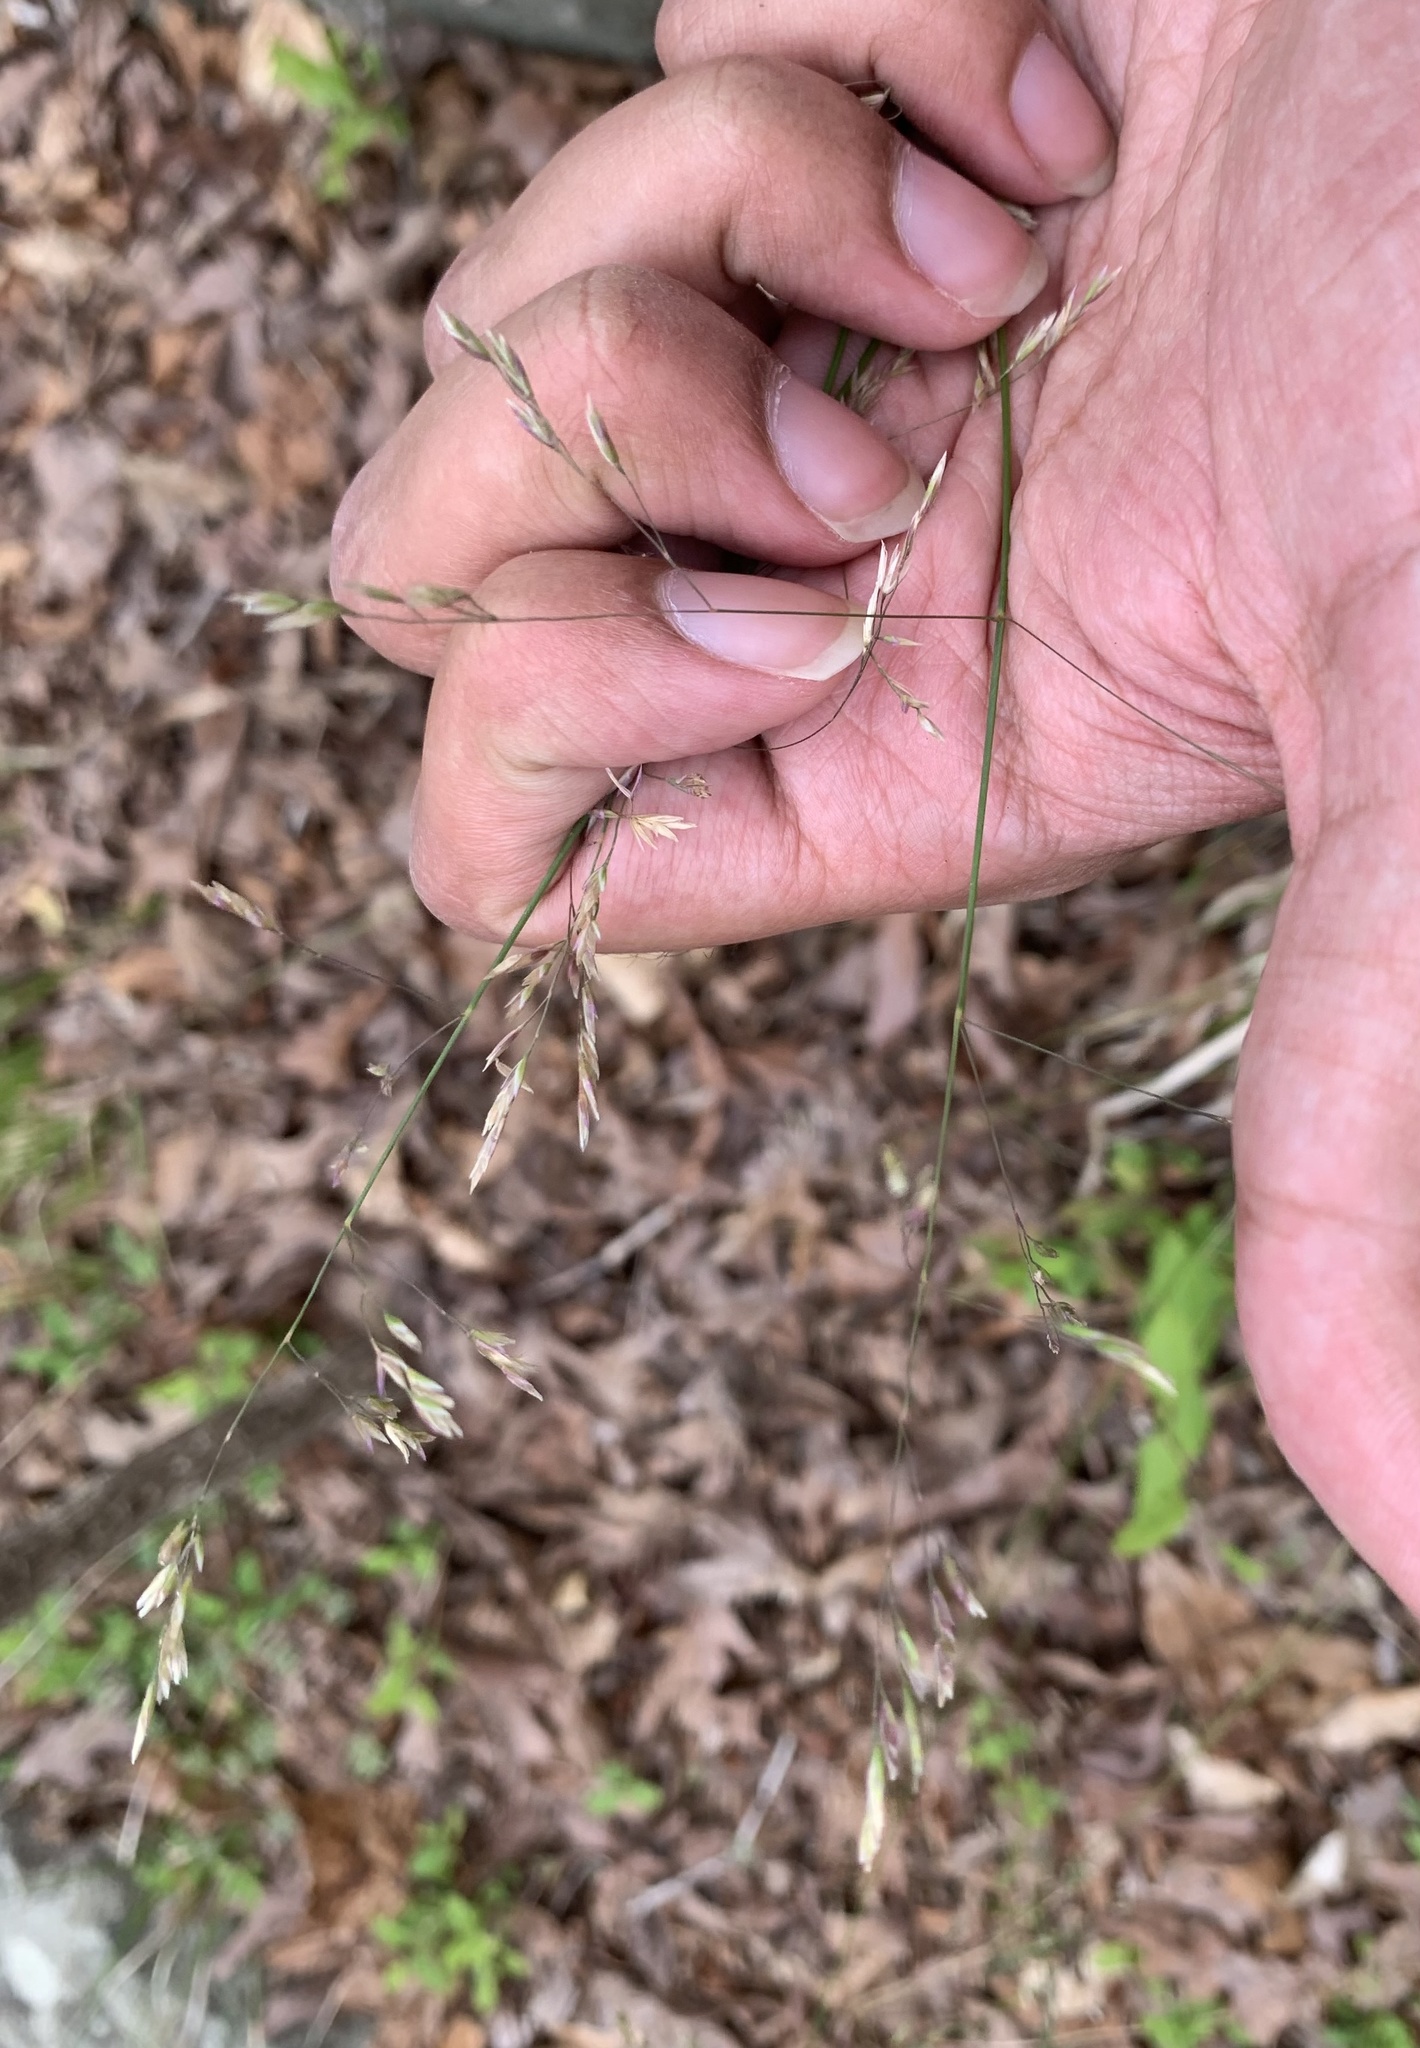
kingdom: Plantae
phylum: Tracheophyta
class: Liliopsida
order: Poales
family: Poaceae
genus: Poa
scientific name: Poa cuspidata
